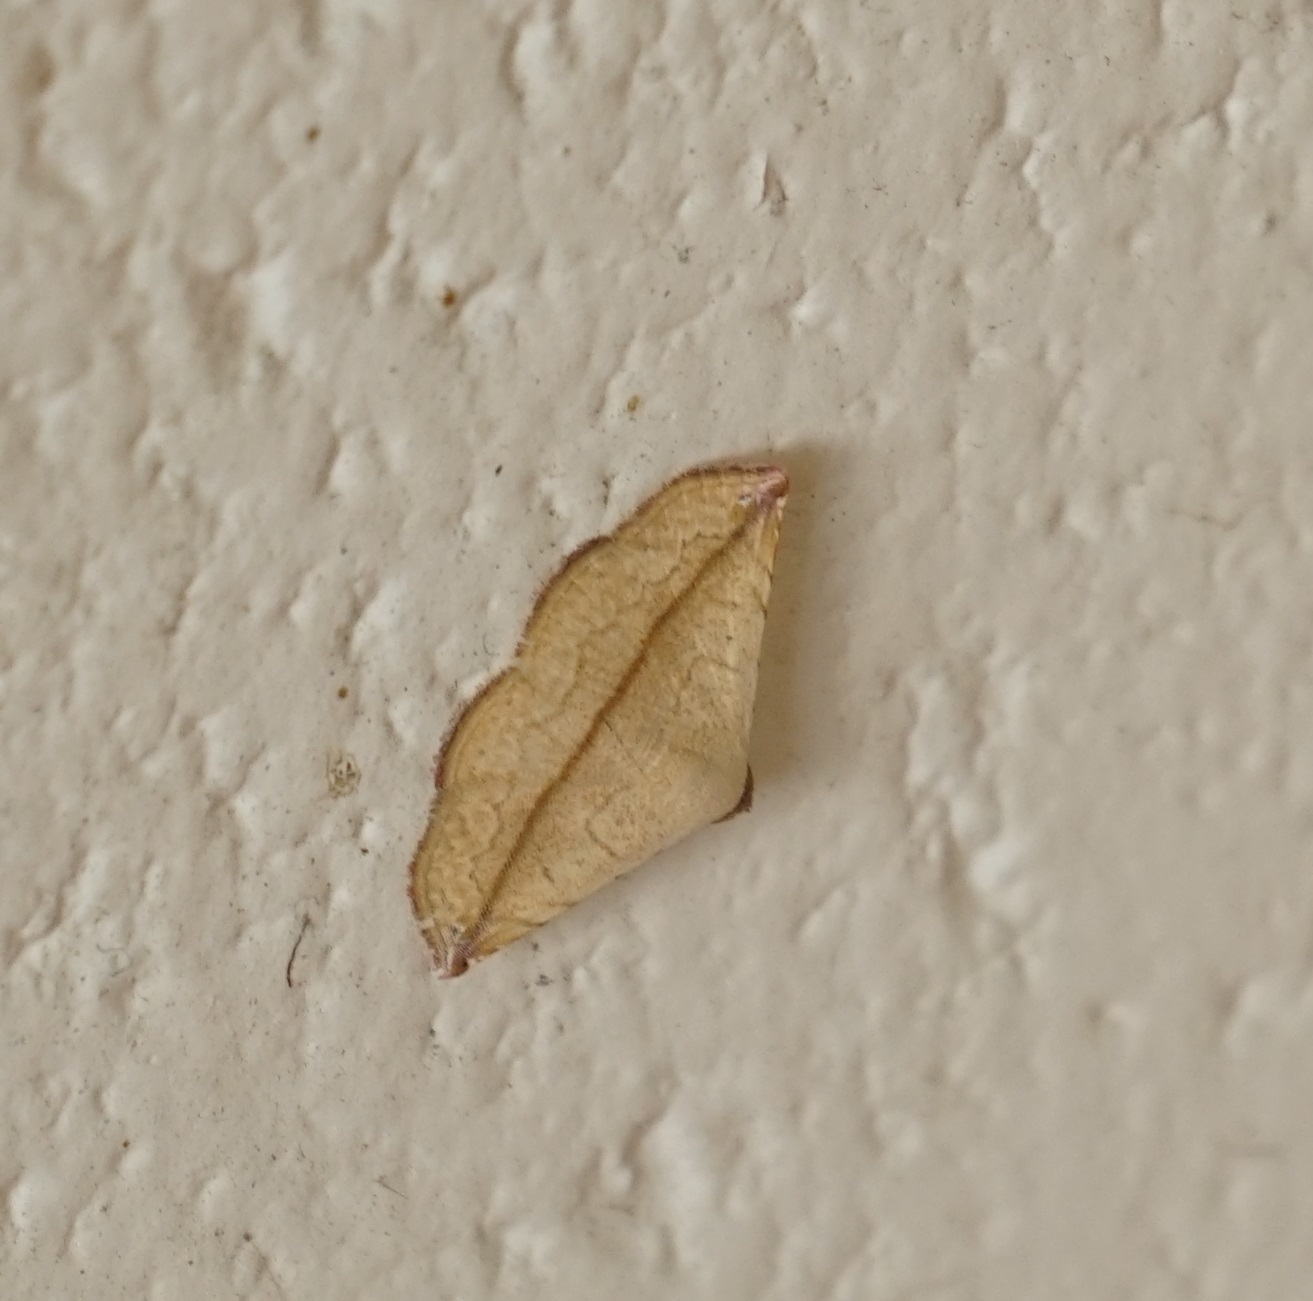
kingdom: Animalia
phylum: Arthropoda
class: Insecta
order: Lepidoptera
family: Noctuidae
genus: Eublemma
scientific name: Eublemma perversicolor
